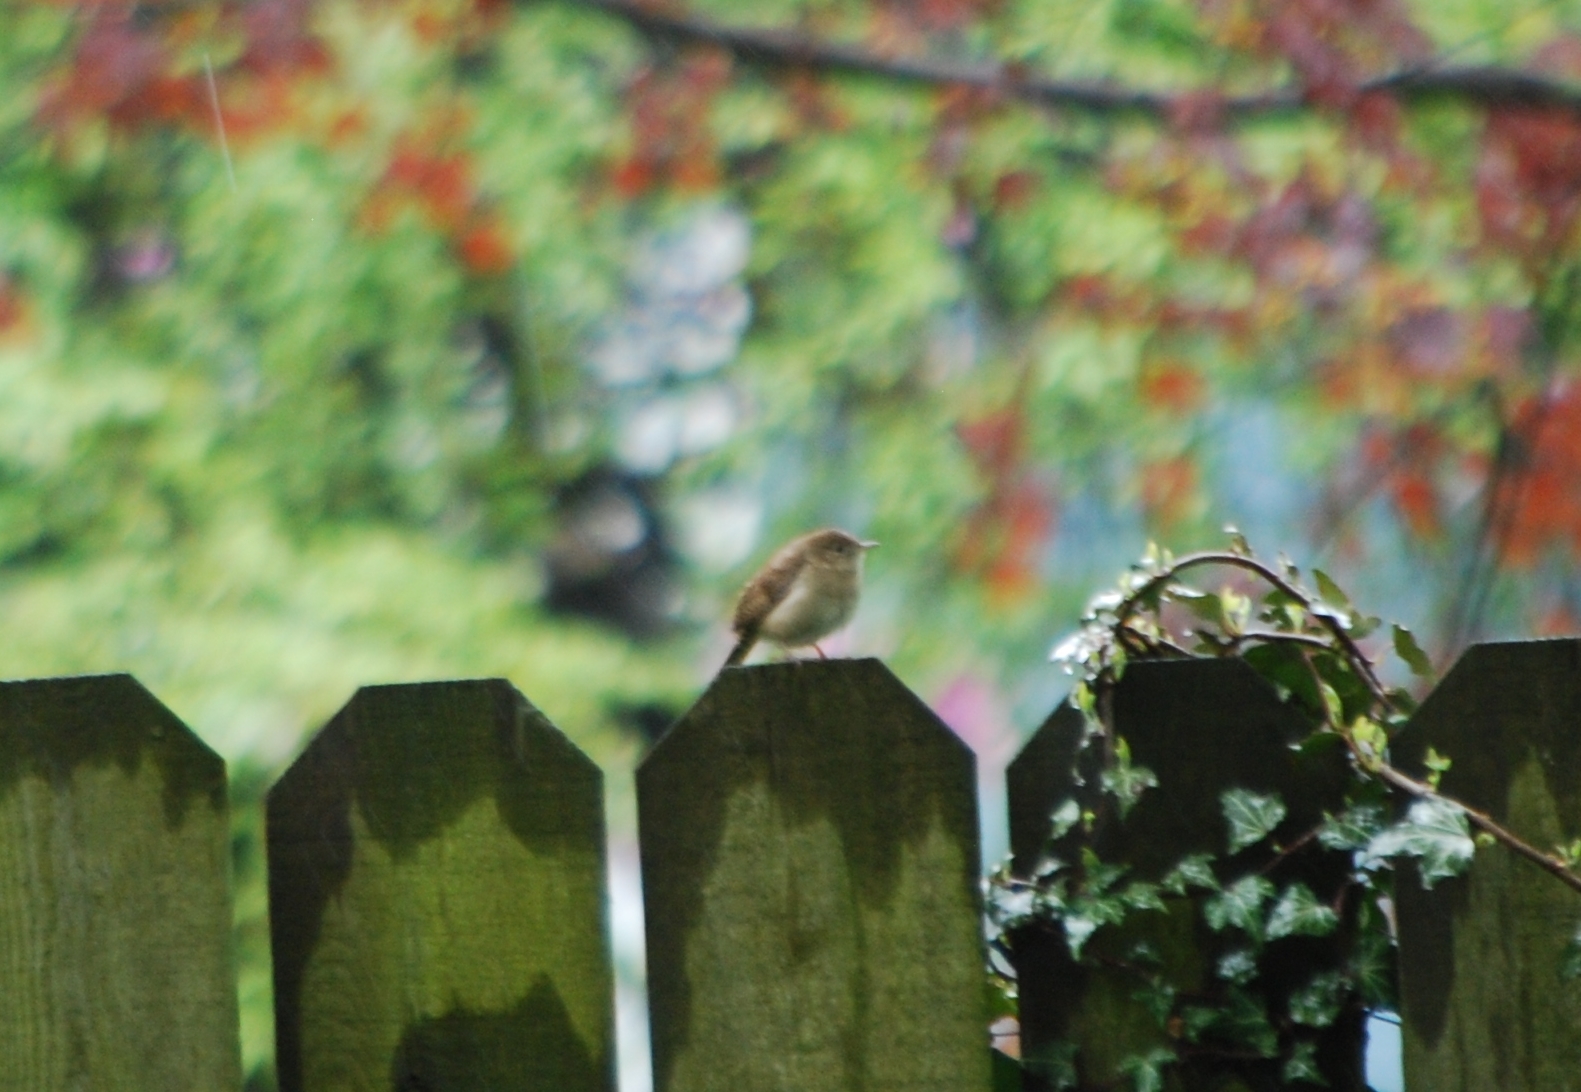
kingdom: Animalia
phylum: Chordata
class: Aves
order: Passeriformes
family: Troglodytidae
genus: Troglodytes
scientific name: Troglodytes aedon
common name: House wren
